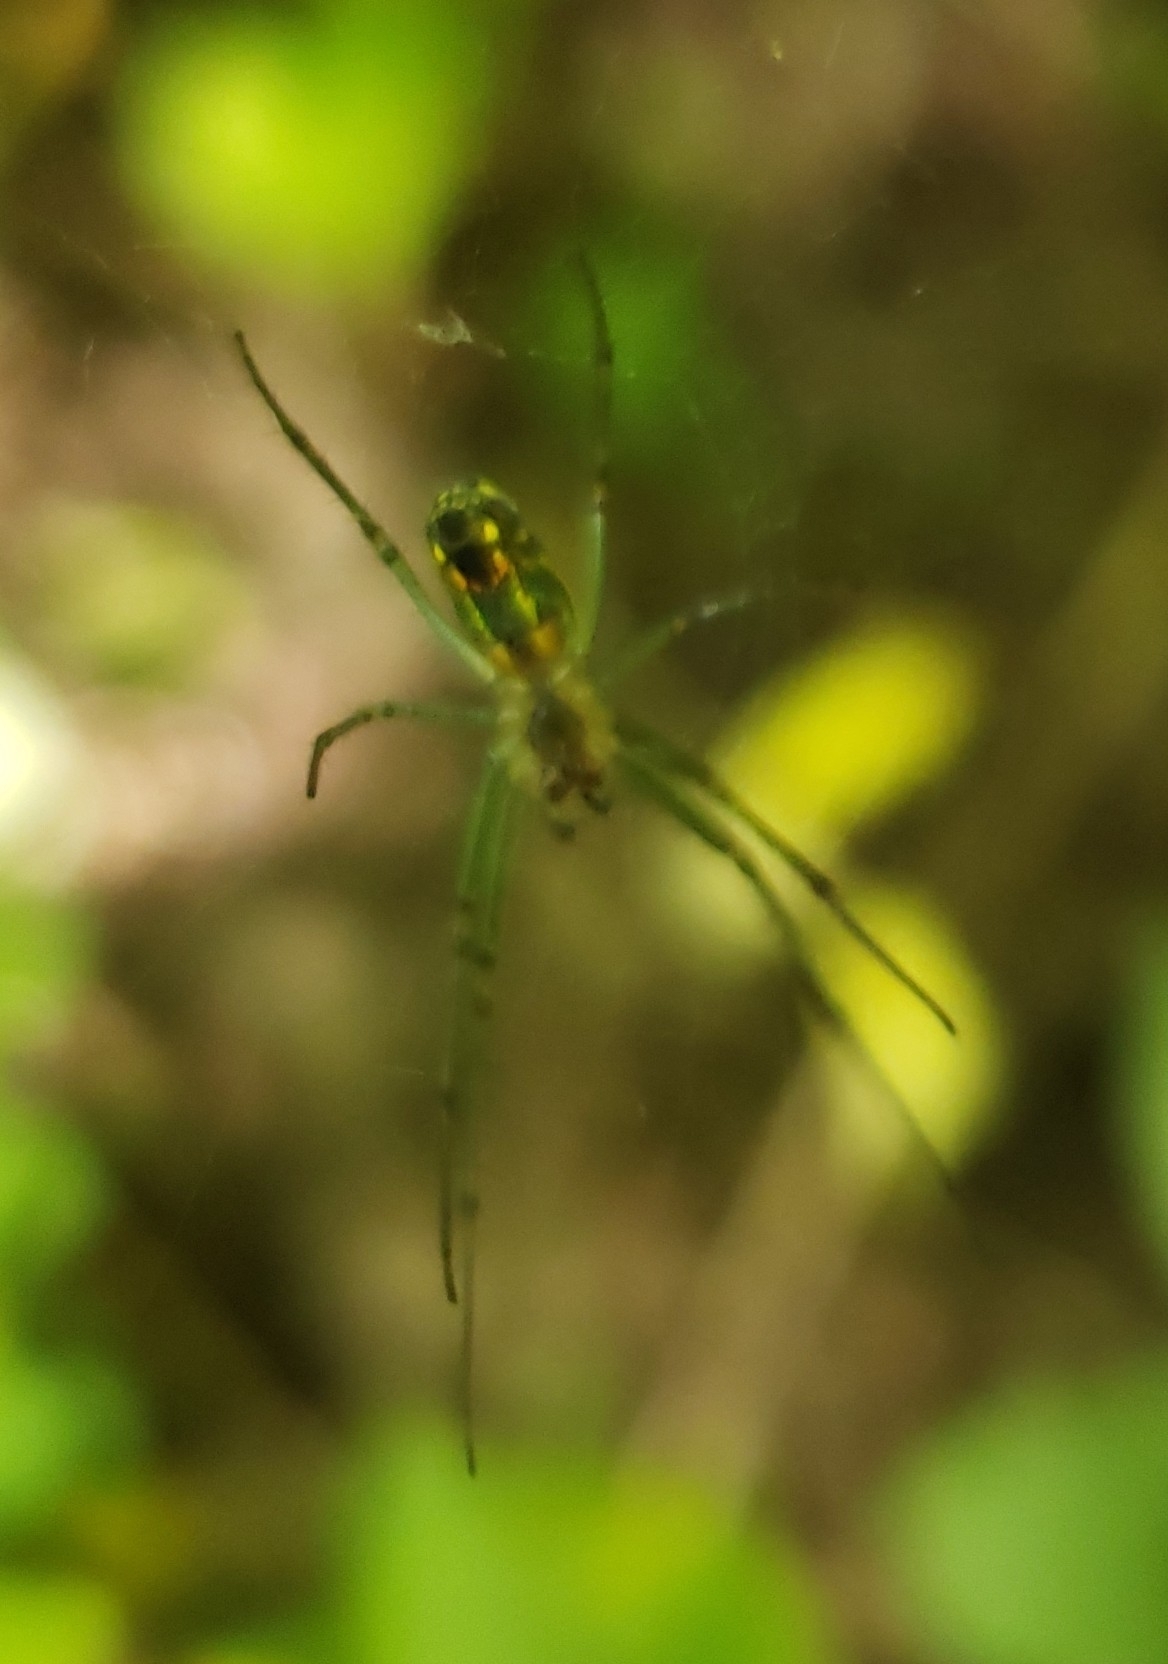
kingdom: Animalia
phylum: Arthropoda
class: Arachnida
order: Araneae
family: Tetragnathidae
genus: Leucauge
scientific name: Leucauge venusta
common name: Longjawed orb weavers
